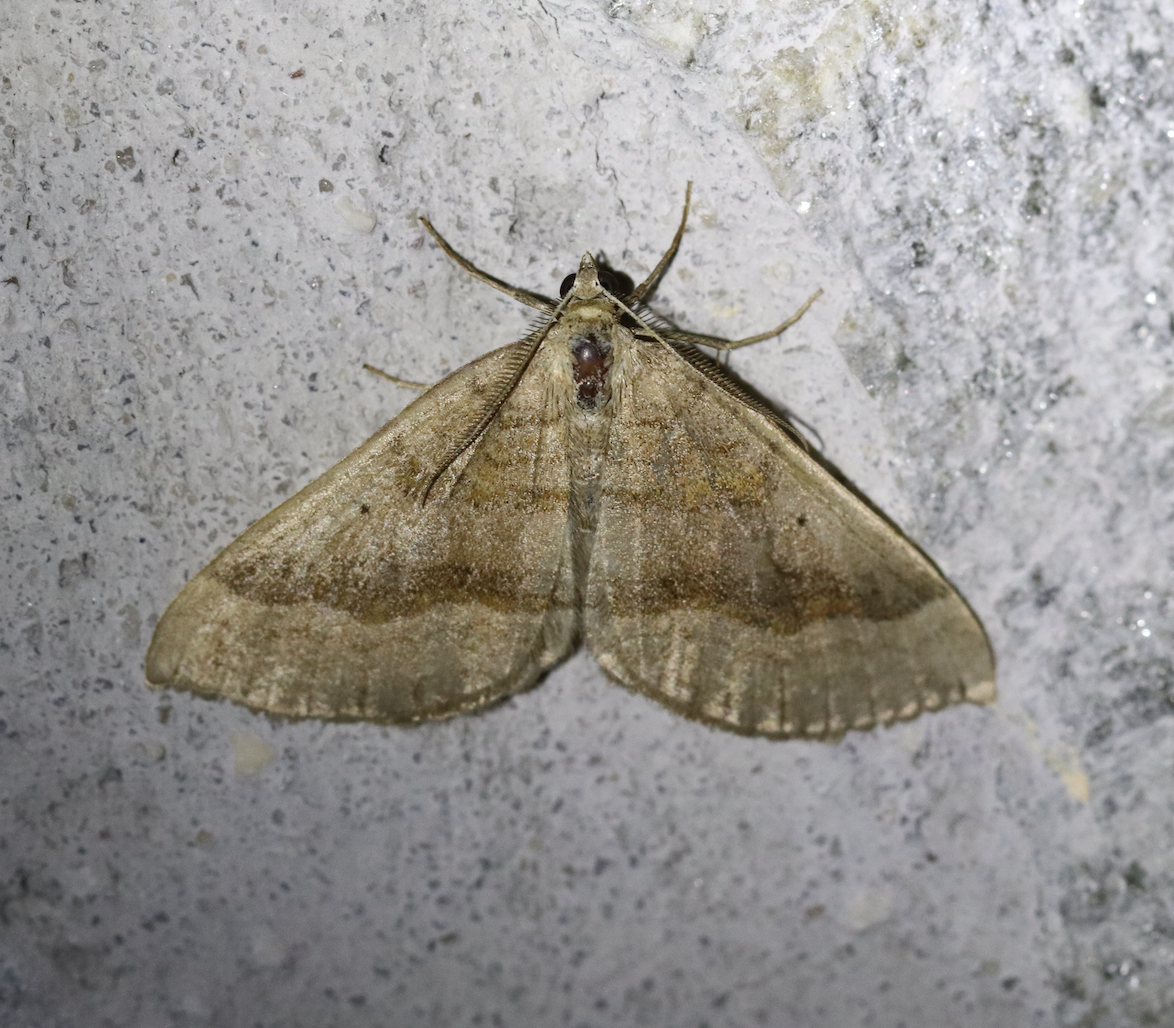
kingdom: Animalia
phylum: Arthropoda
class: Insecta
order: Lepidoptera
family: Geometridae
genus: Scotopteryx
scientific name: Scotopteryx chenopodiata
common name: Shaded broad-bar
